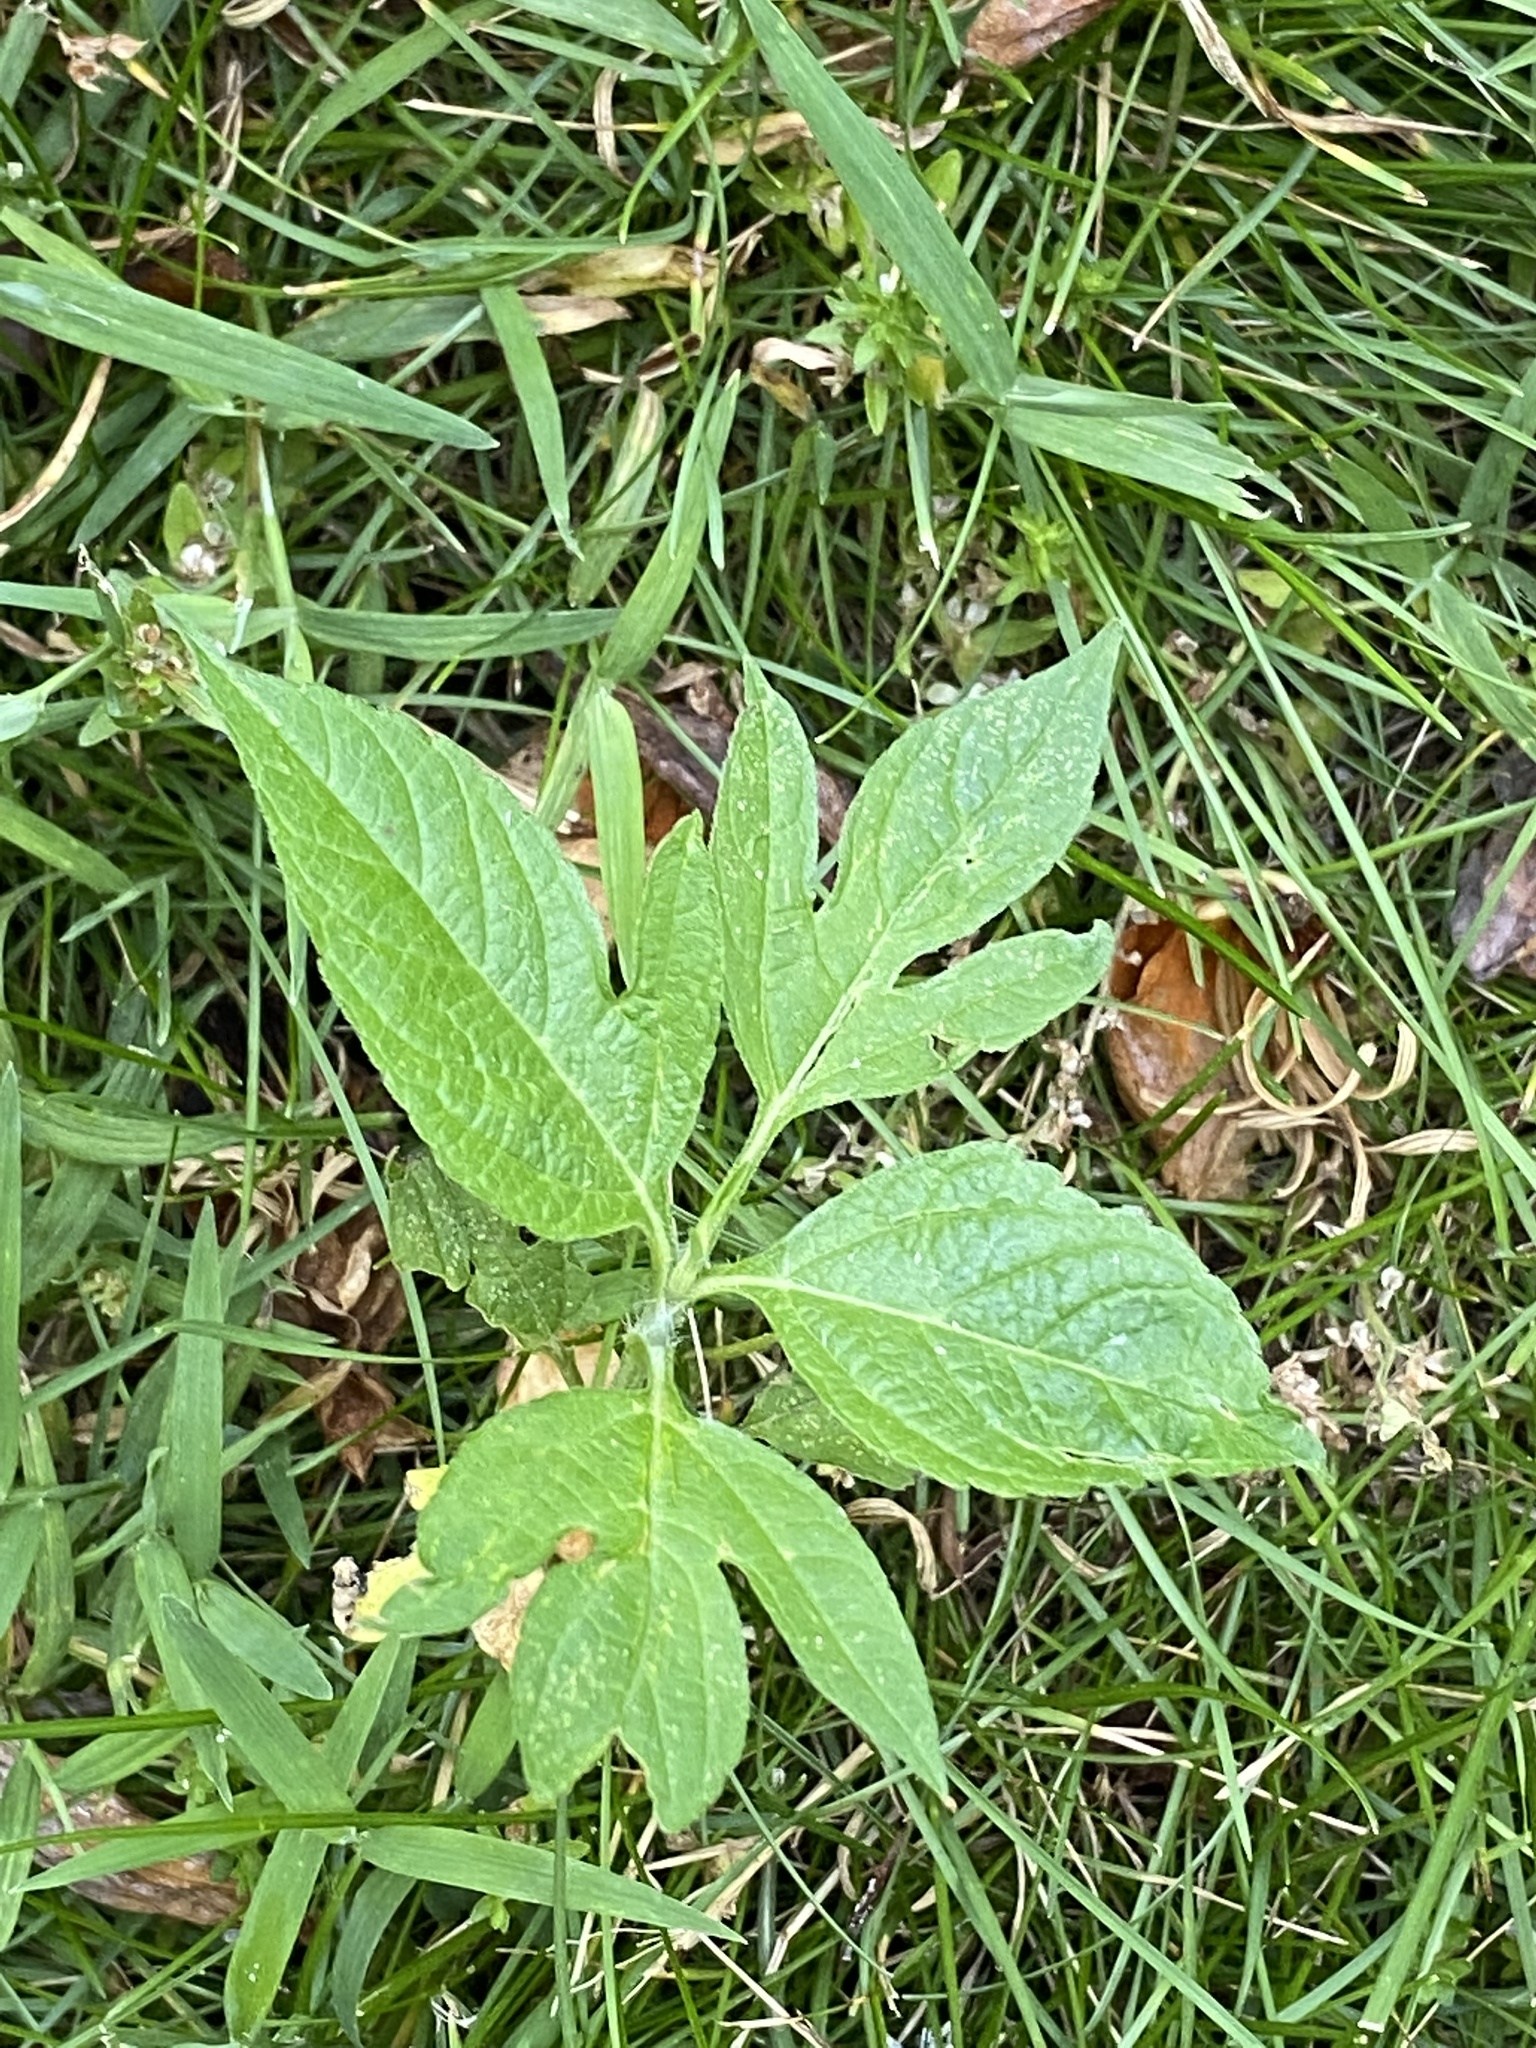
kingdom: Plantae
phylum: Tracheophyta
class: Magnoliopsida
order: Asterales
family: Asteraceae
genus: Ambrosia
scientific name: Ambrosia trifida
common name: Giant ragweed
